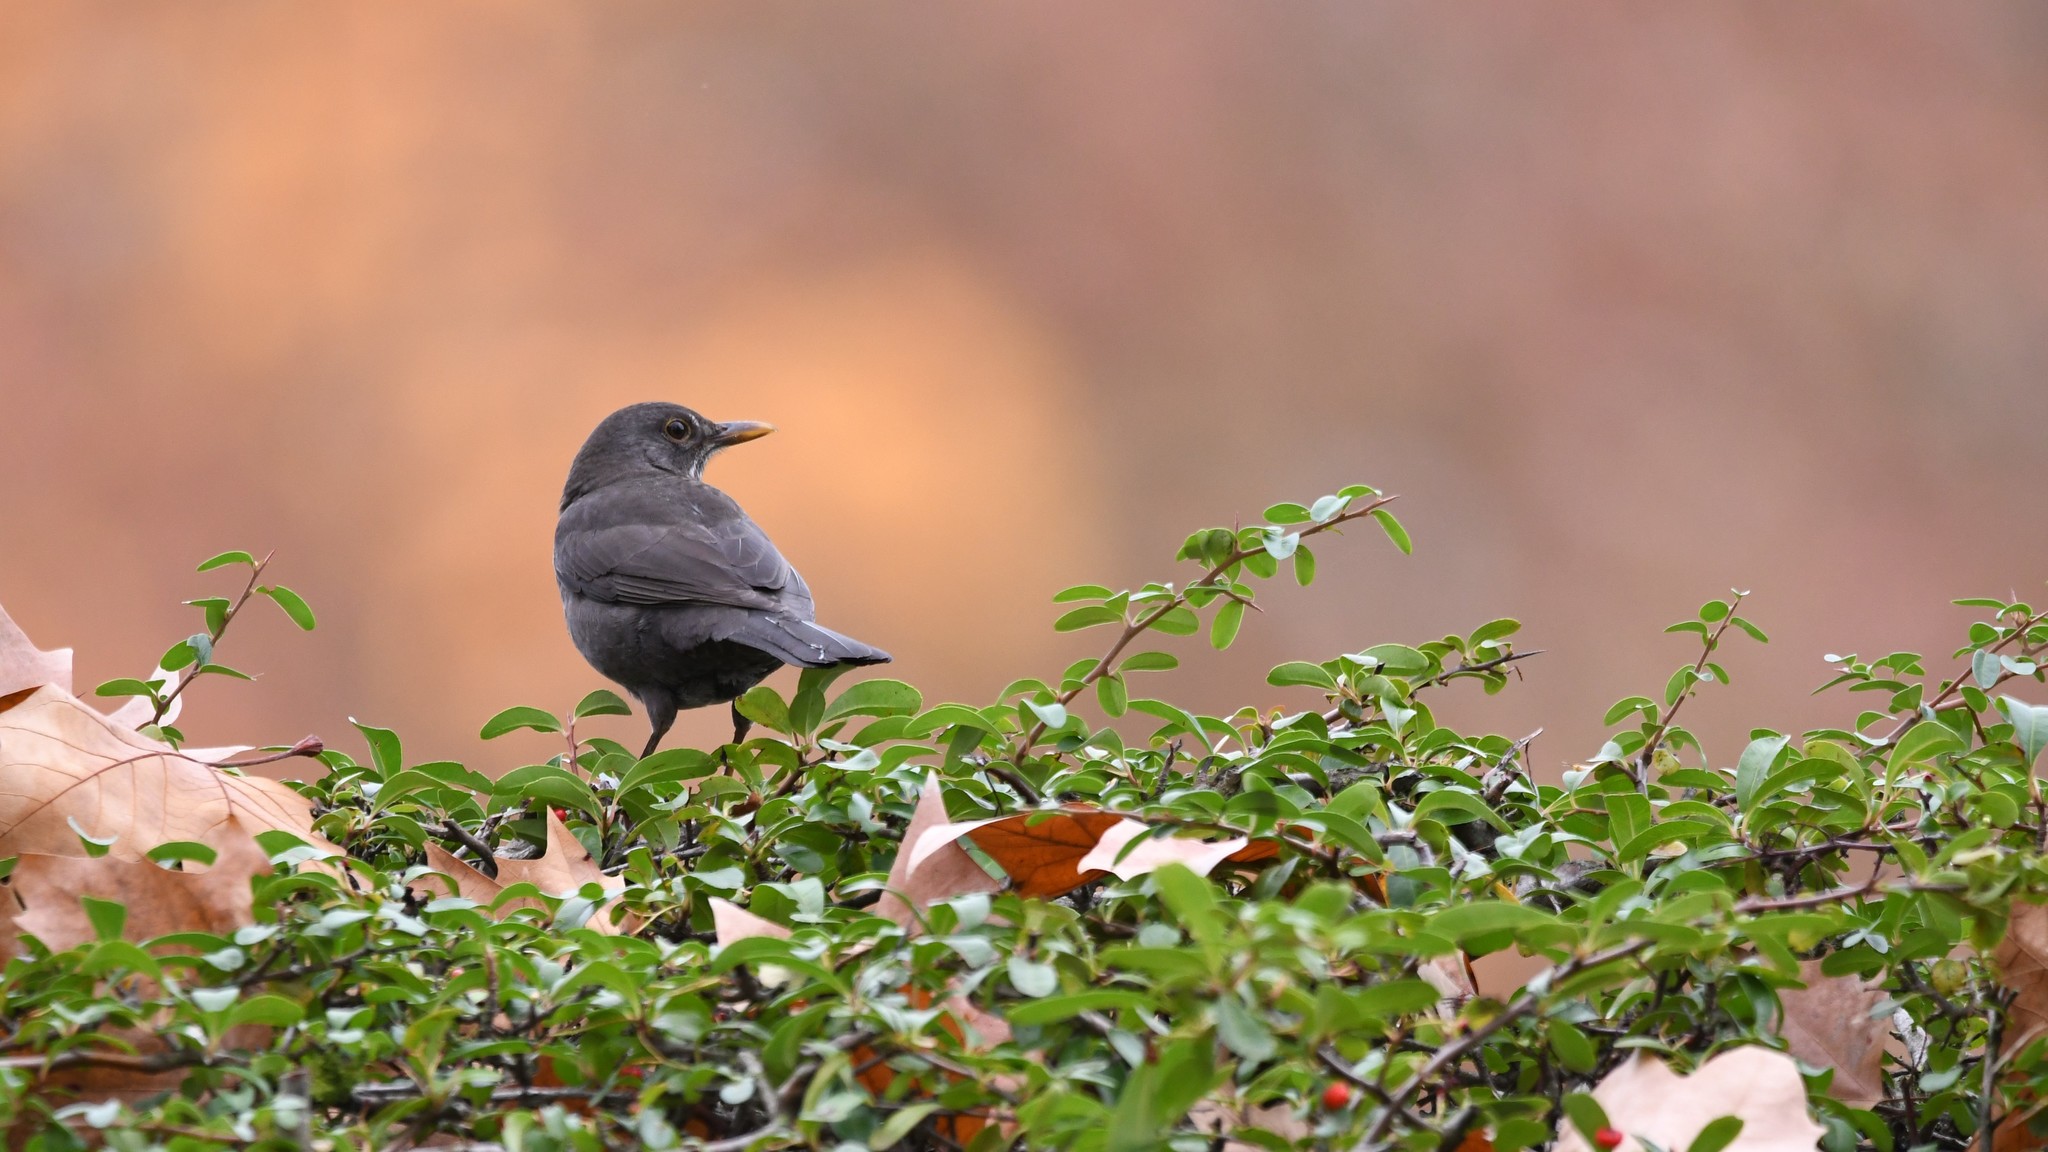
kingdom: Animalia
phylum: Chordata
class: Aves
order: Passeriformes
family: Turdidae
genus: Turdus
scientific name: Turdus merula
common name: Common blackbird
